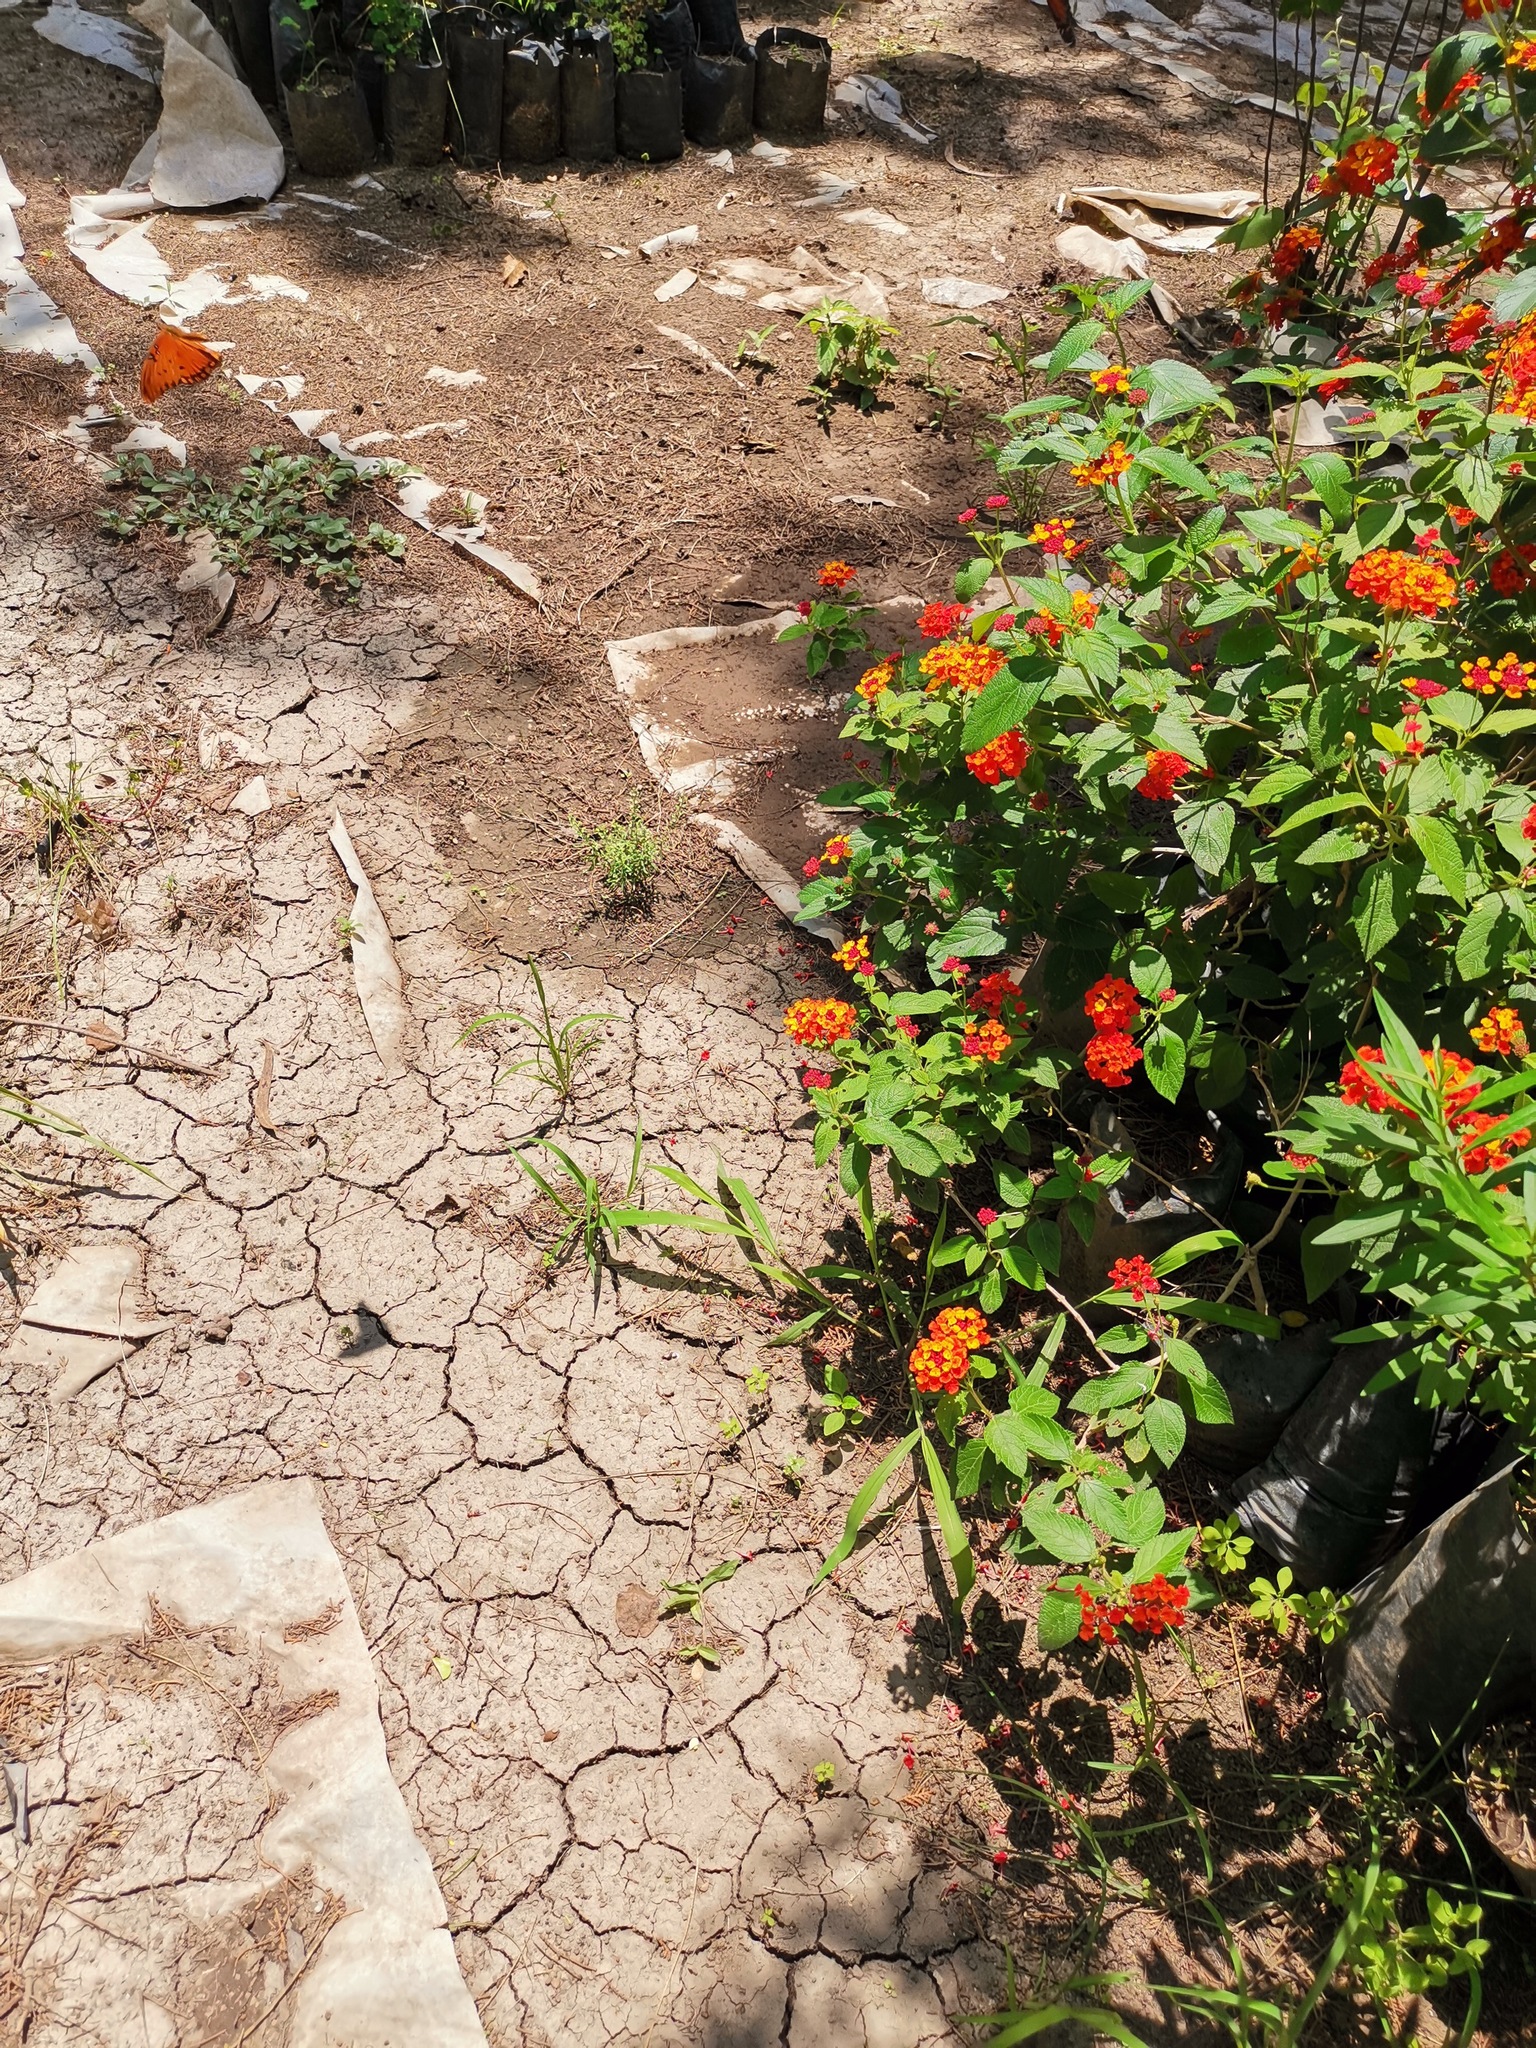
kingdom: Animalia
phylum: Arthropoda
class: Insecta
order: Lepidoptera
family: Nymphalidae
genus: Dione
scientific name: Dione vanillae
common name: Gulf fritillary
